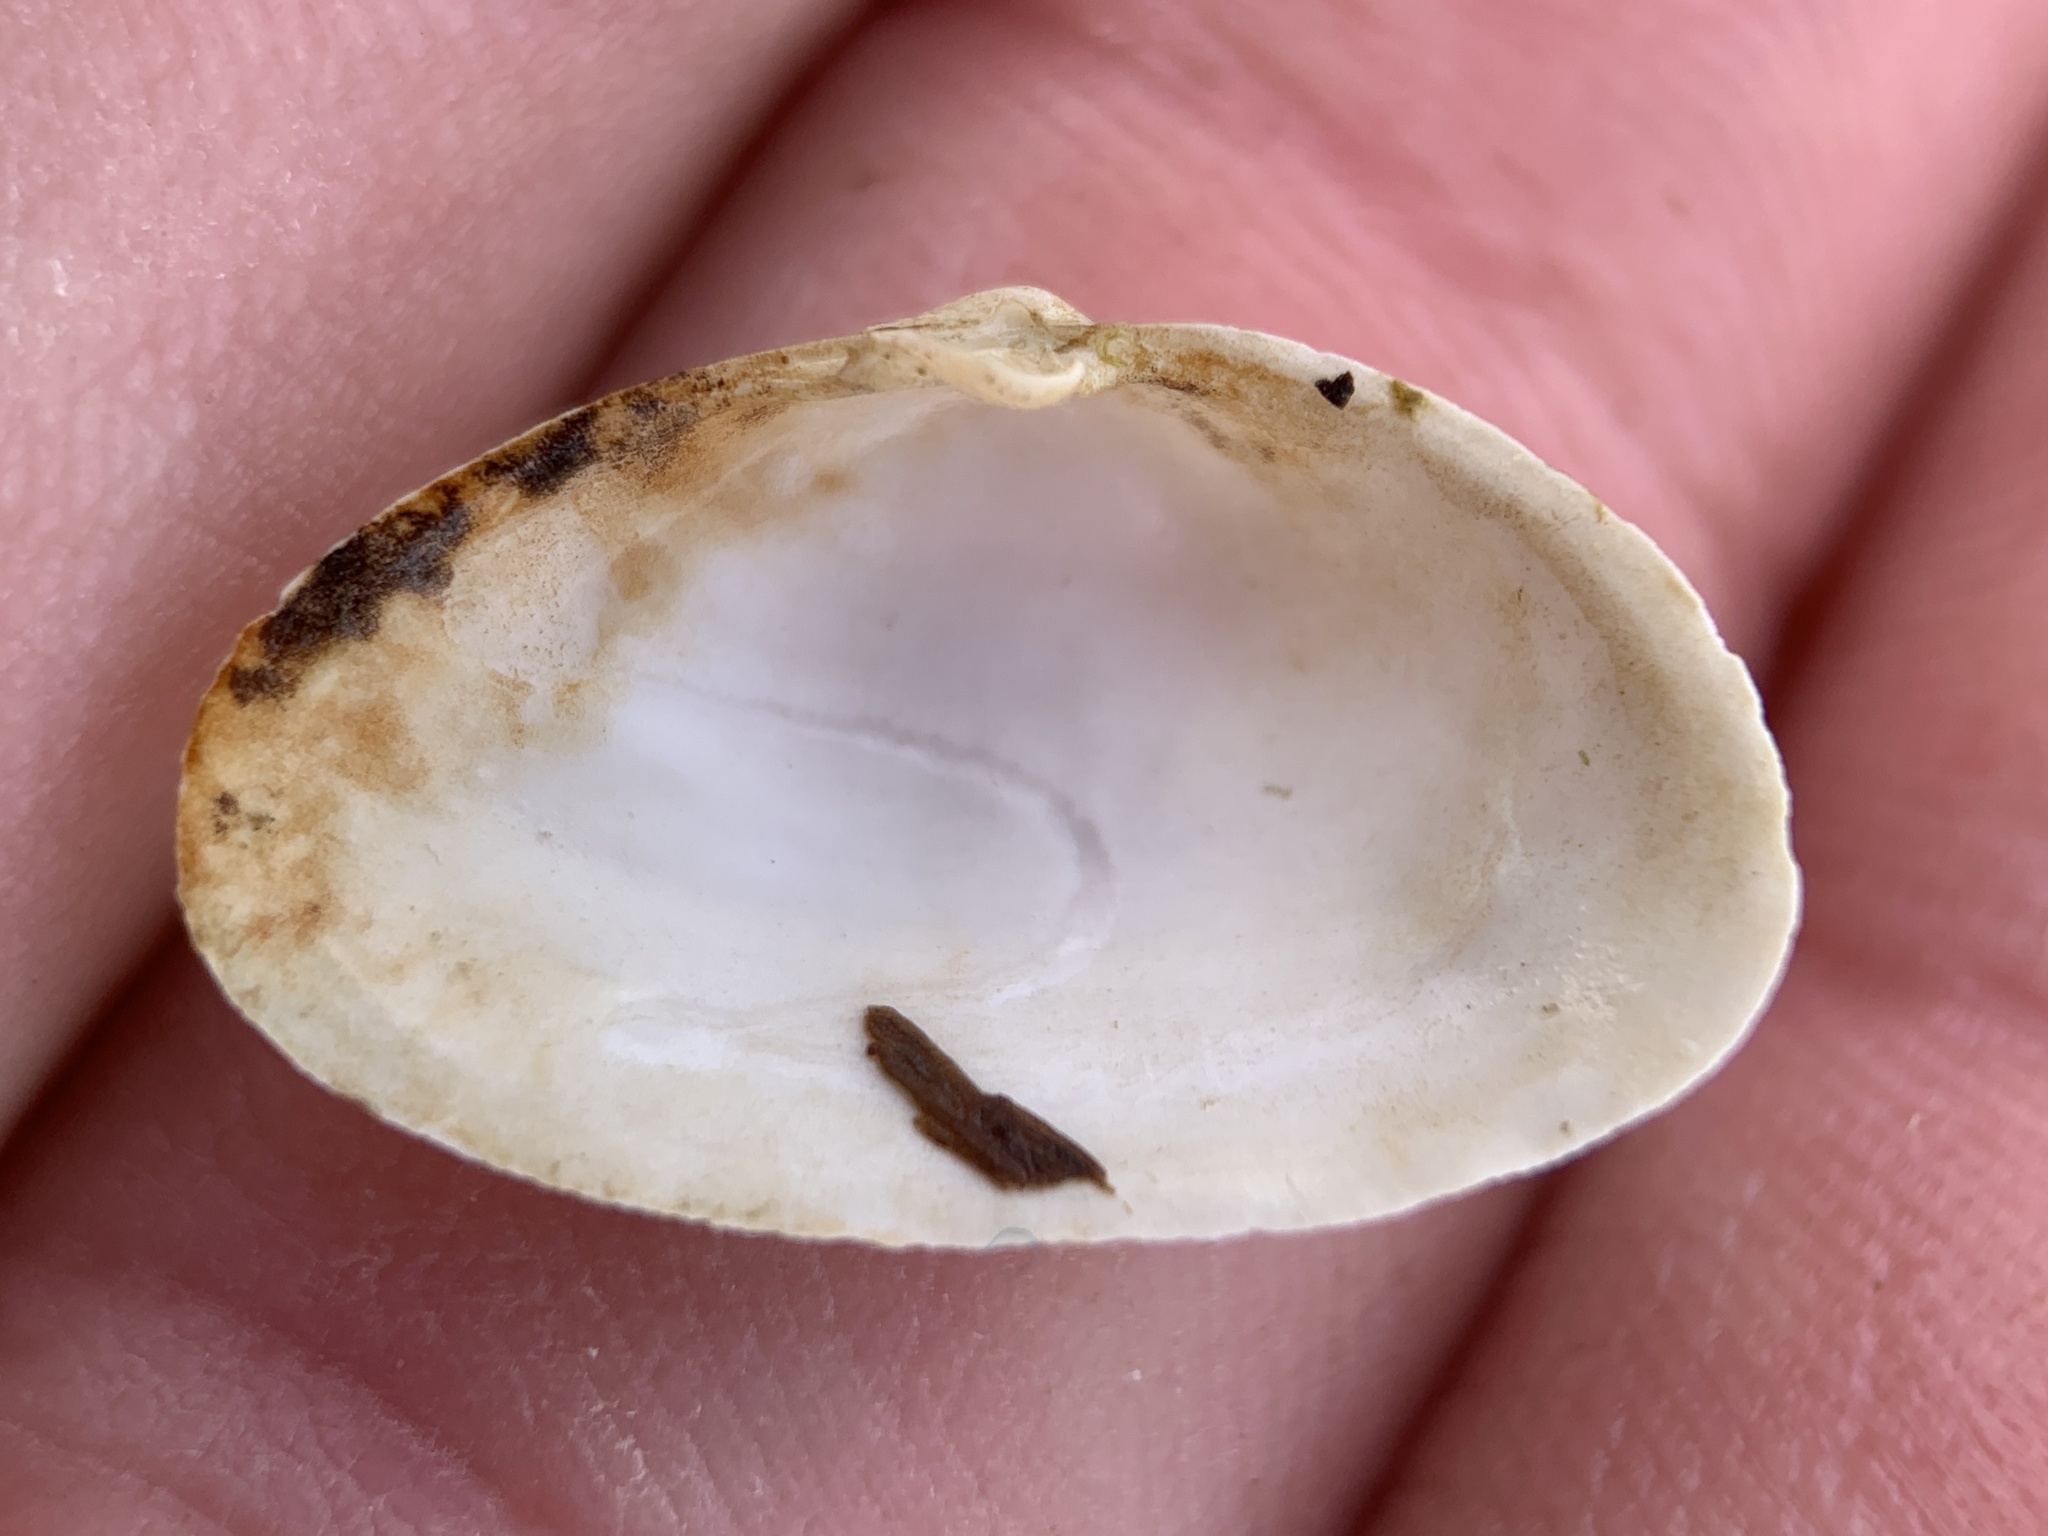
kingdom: Animalia
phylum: Mollusca
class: Bivalvia
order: Myida
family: Myidae
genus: Mya
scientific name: Mya arenaria
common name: Soft-shelled clam
